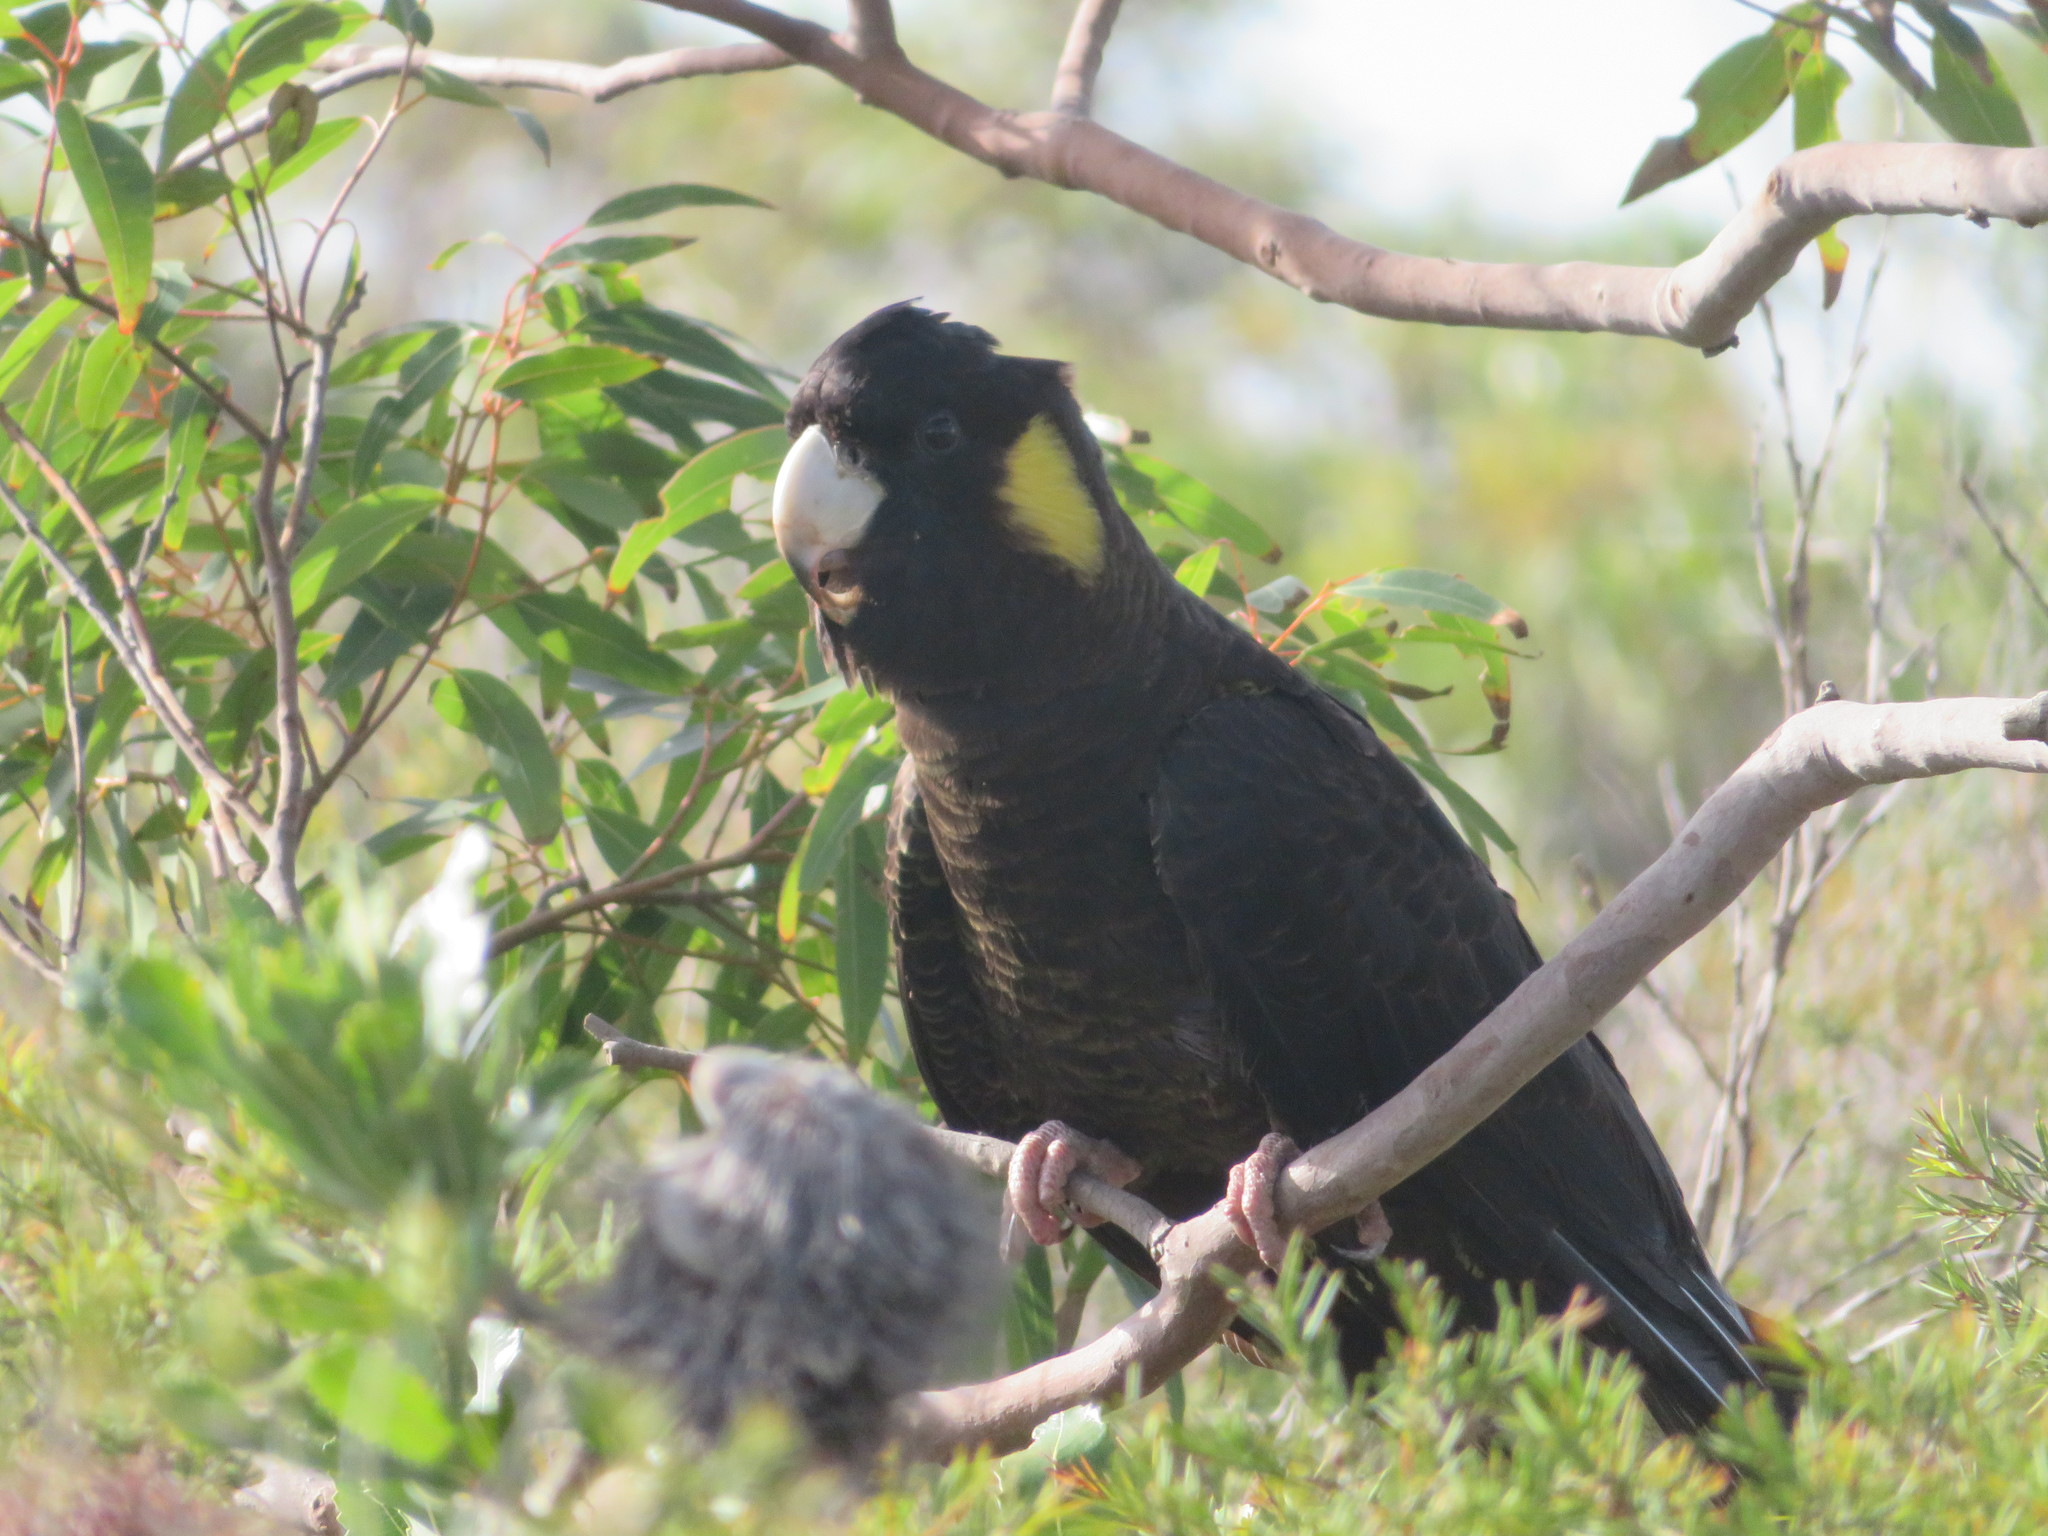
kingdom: Animalia
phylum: Chordata
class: Aves
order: Psittaciformes
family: Cacatuidae
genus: Zanda
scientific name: Zanda funerea
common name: Yellow-tailed black-cockatoo
